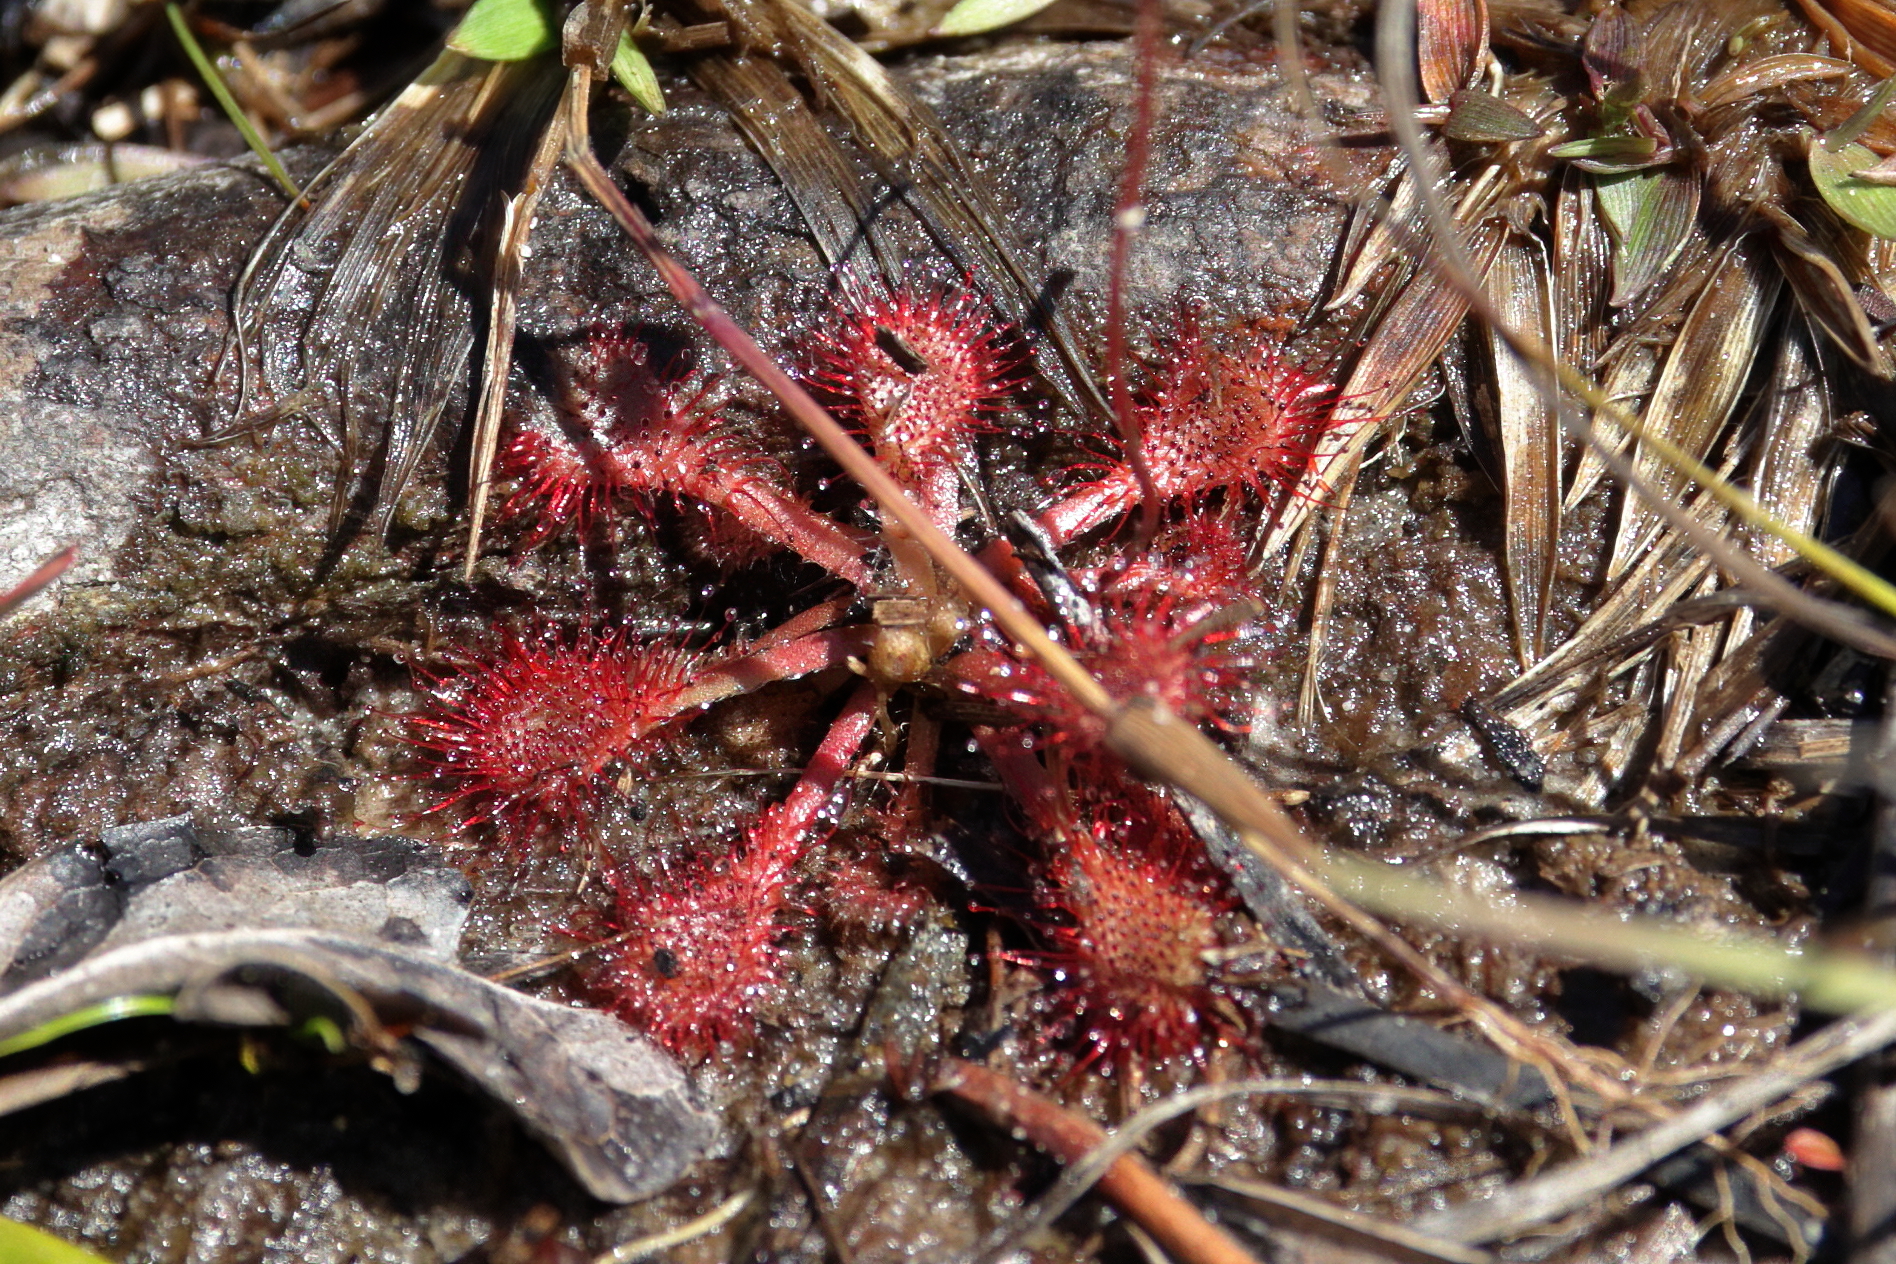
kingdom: Plantae
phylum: Tracheophyta
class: Magnoliopsida
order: Caryophyllales
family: Droseraceae
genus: Drosera
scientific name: Drosera capillaris
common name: Pink sundew
